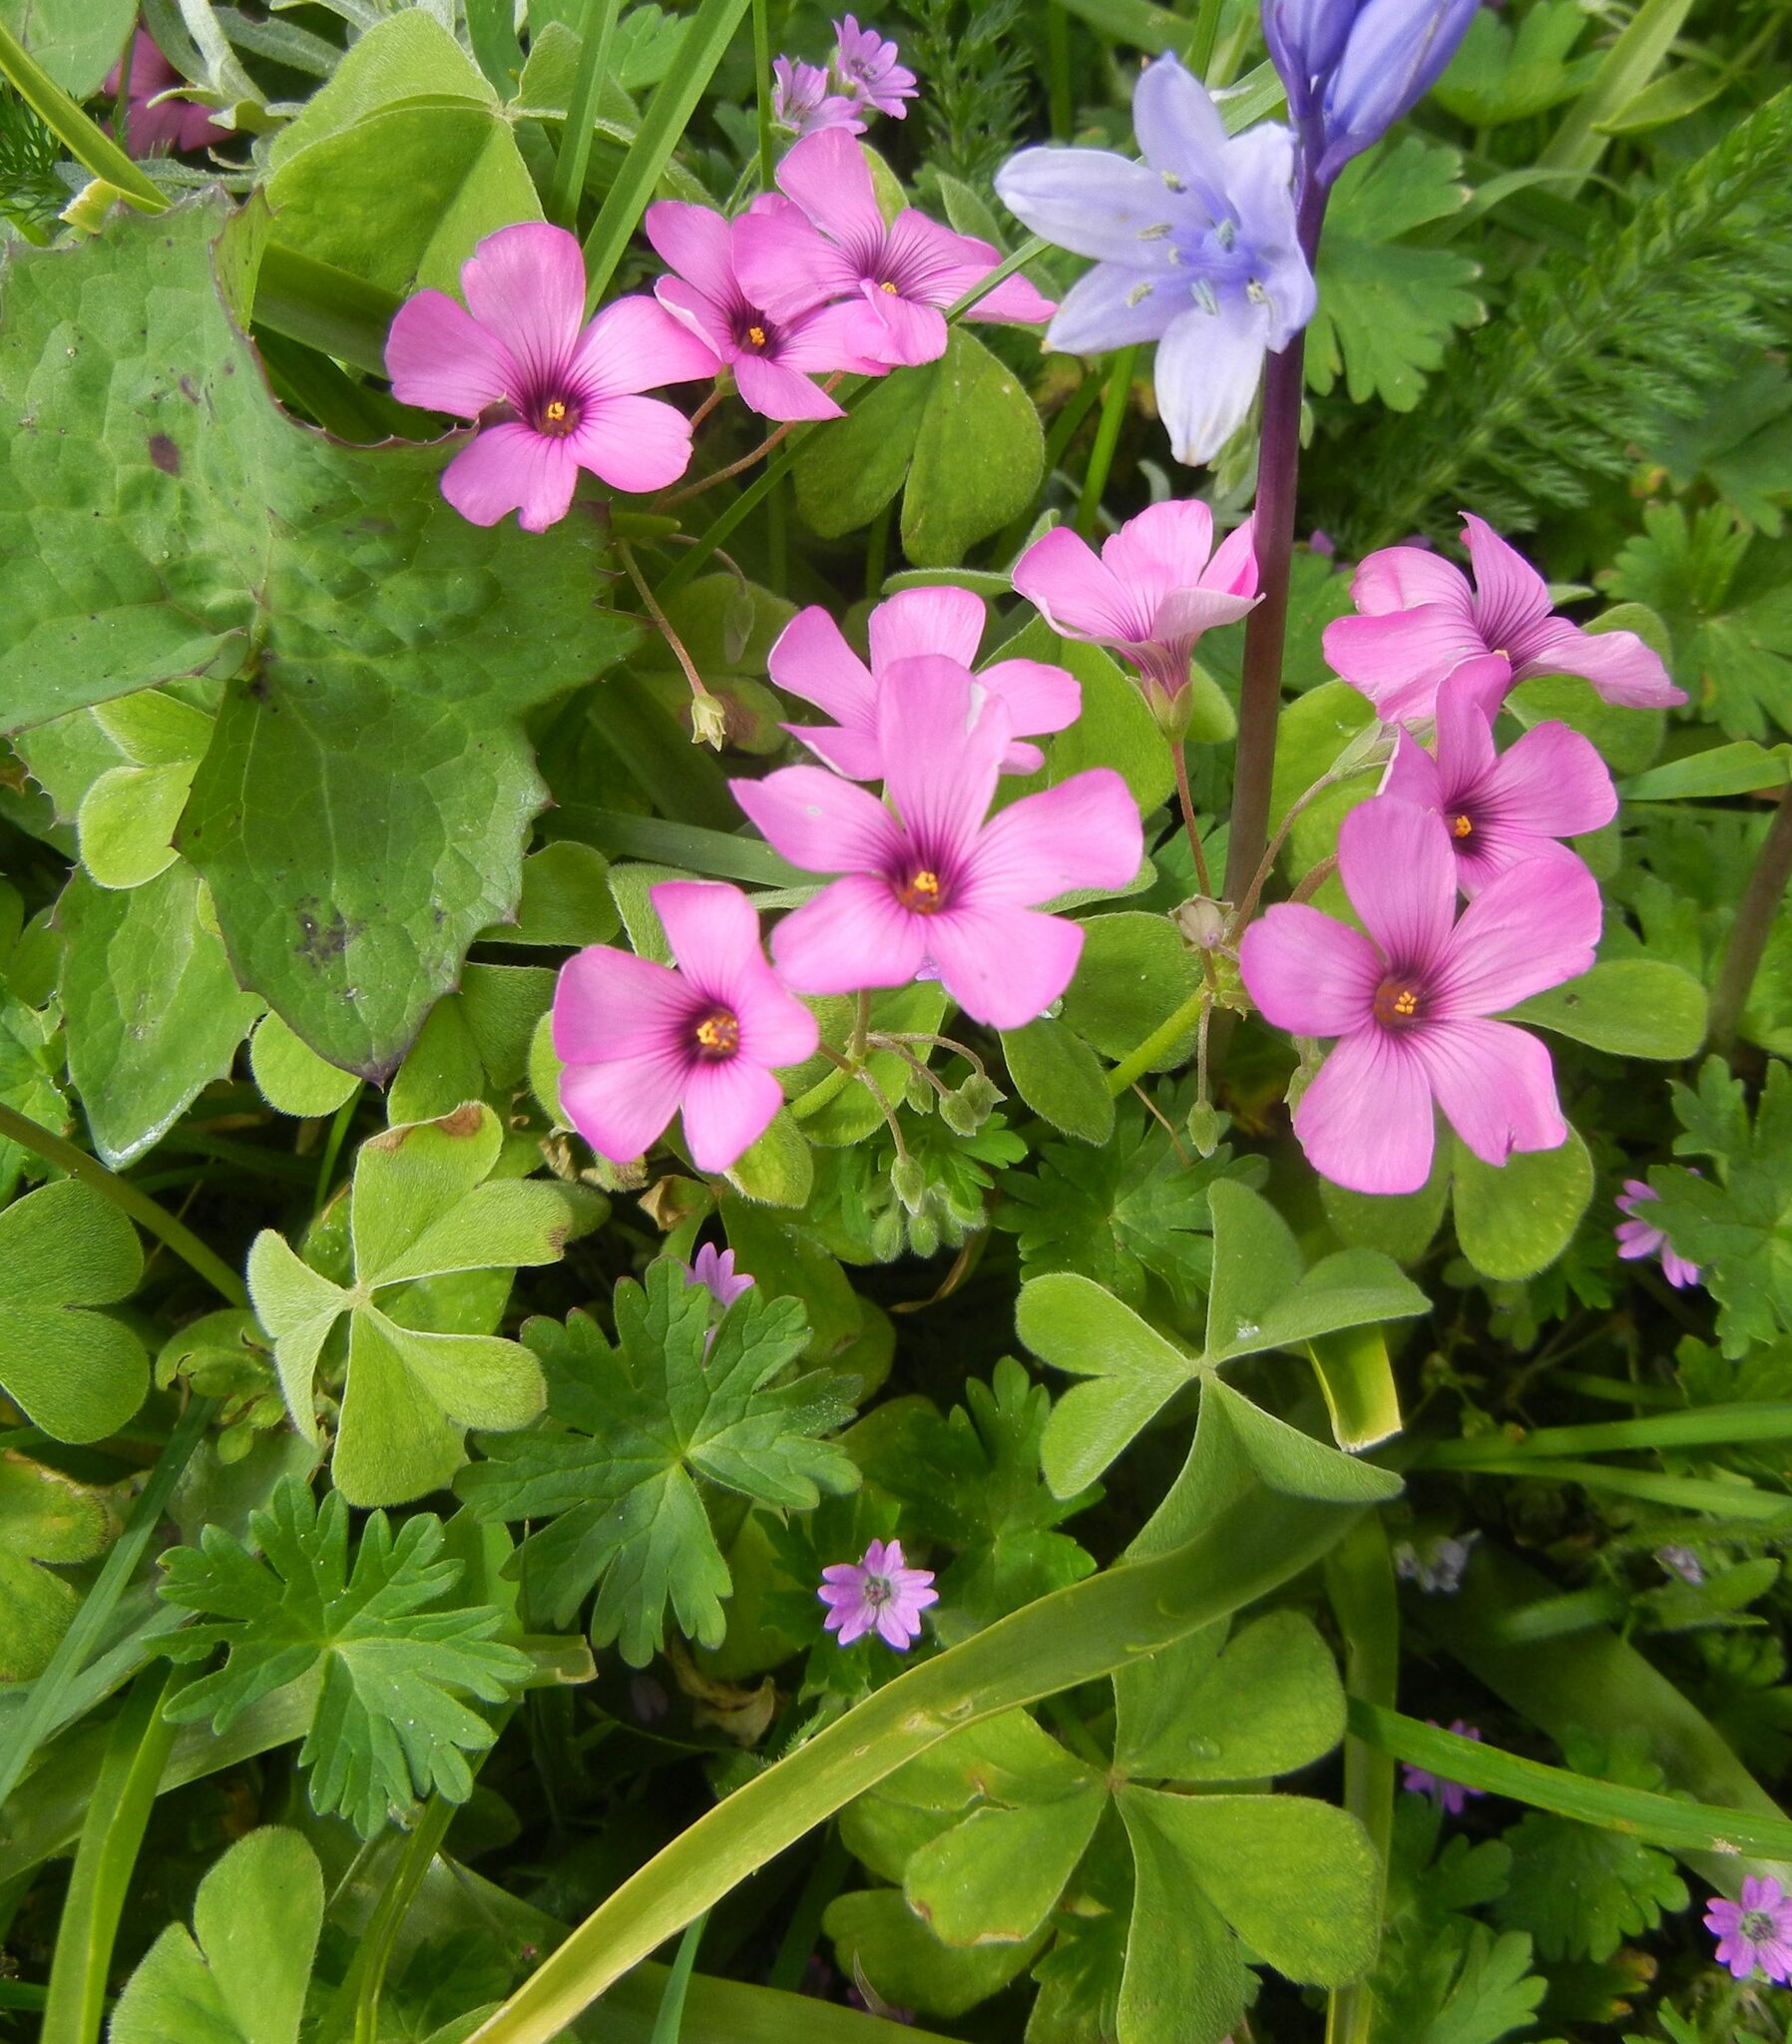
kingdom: Plantae
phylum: Tracheophyta
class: Magnoliopsida
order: Oxalidales
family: Oxalidaceae
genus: Oxalis
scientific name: Oxalis articulata
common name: Pink-sorrel
